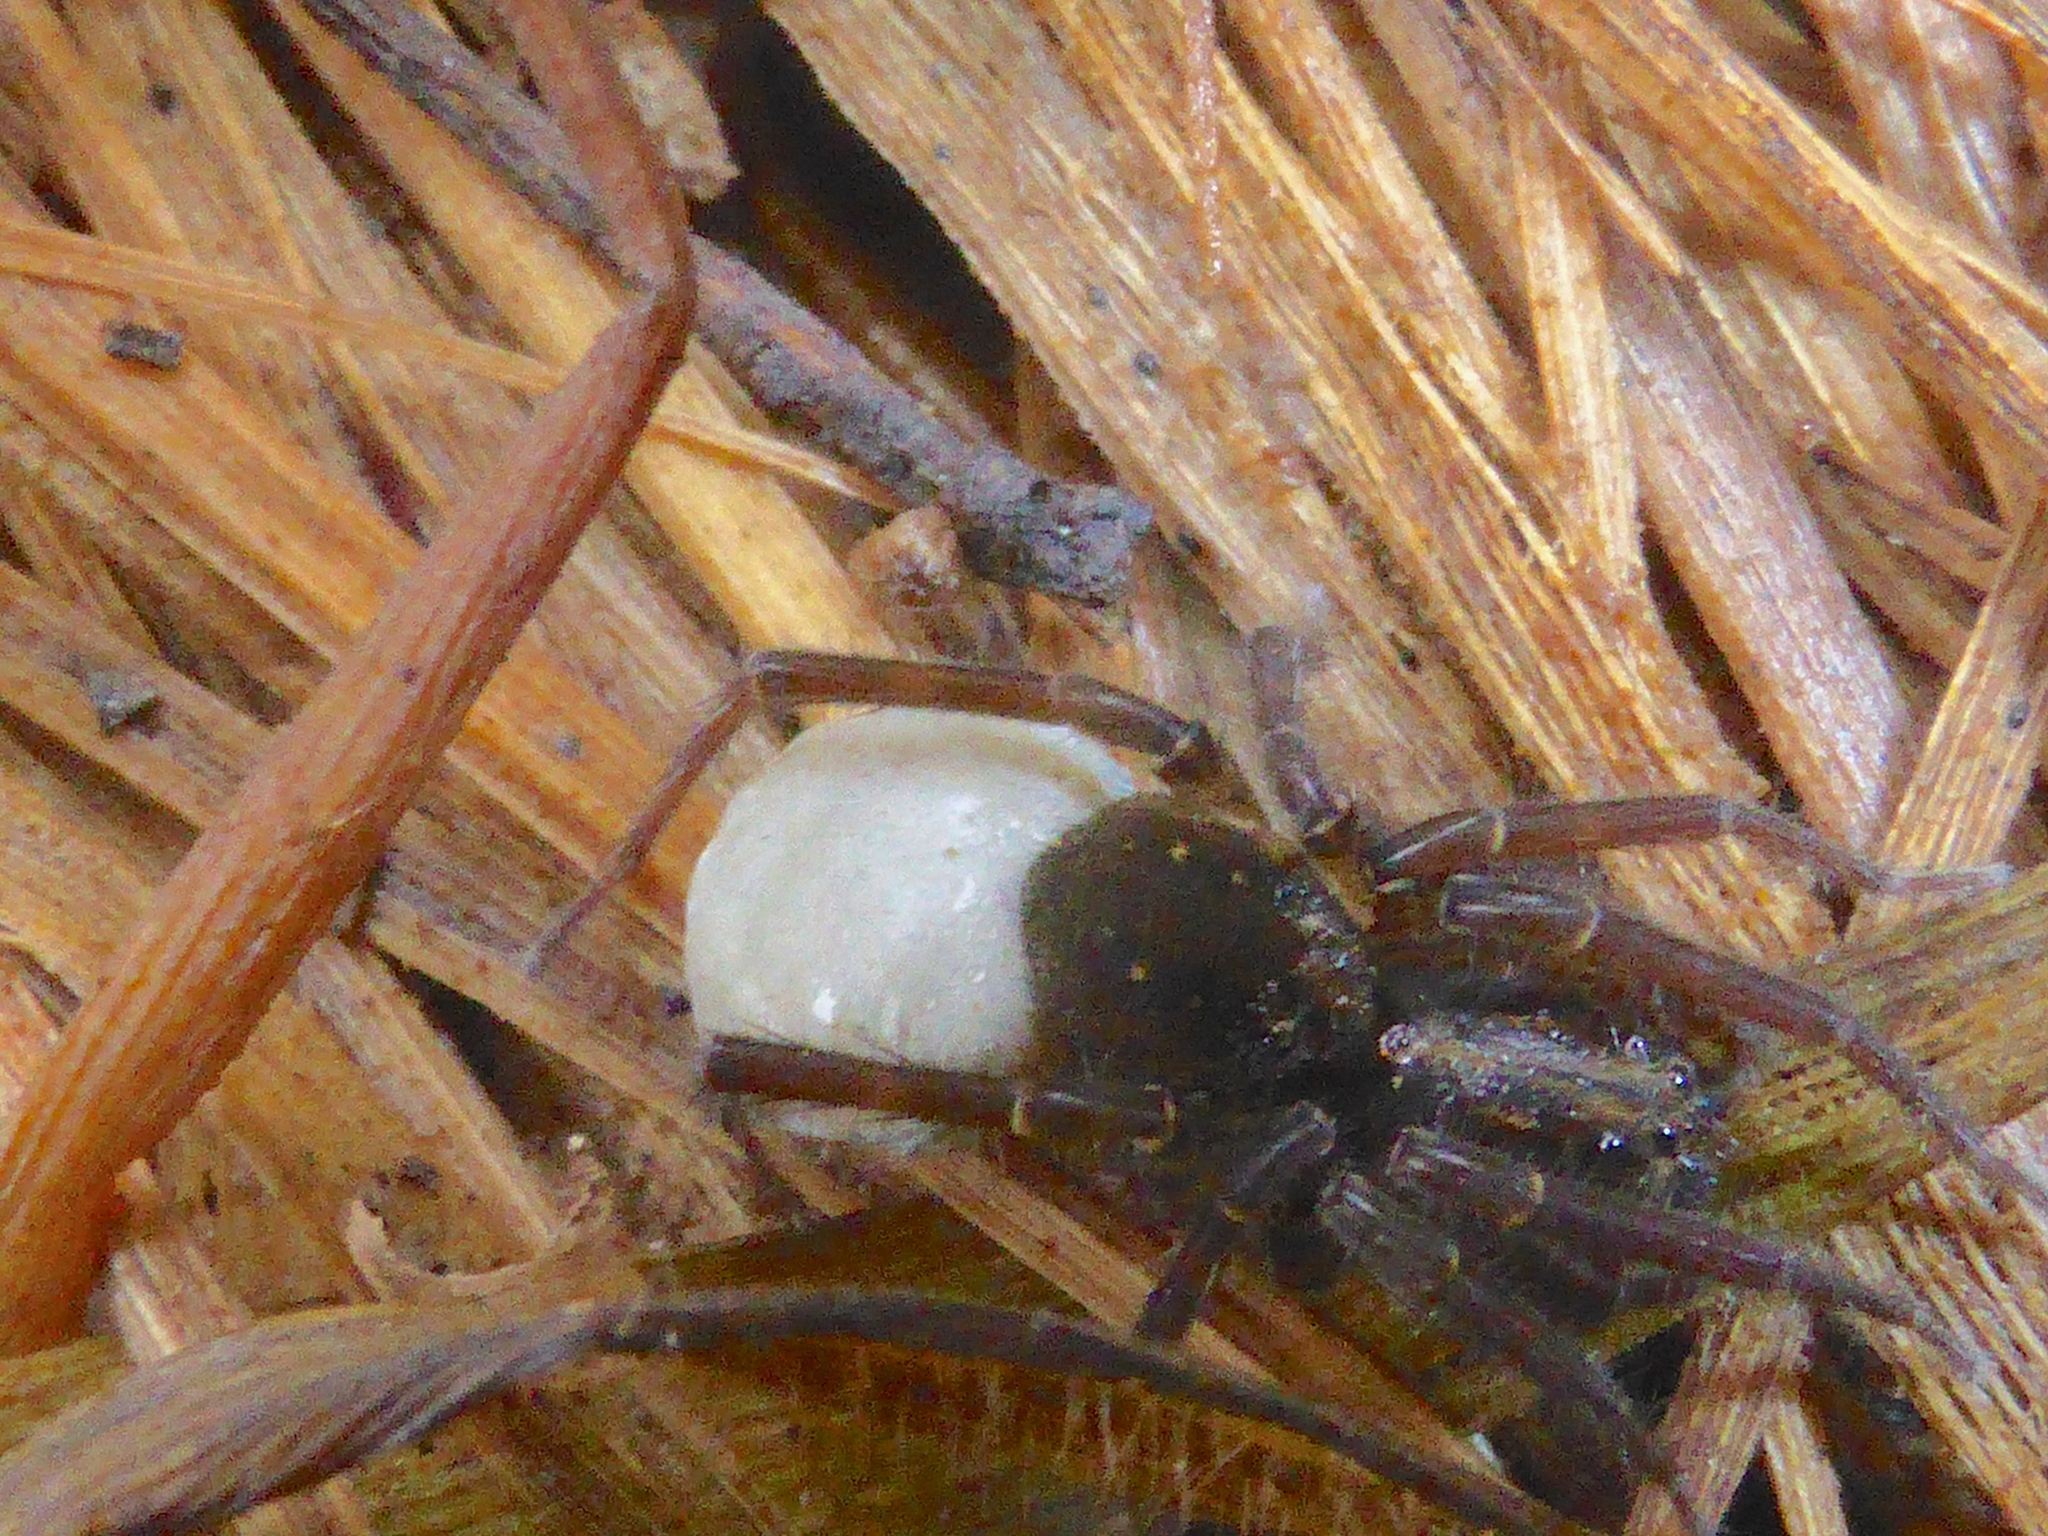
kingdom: Animalia
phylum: Arthropoda
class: Arachnida
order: Araneae
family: Lycosidae
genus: Allotrochosina
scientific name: Allotrochosina schauinslandi
